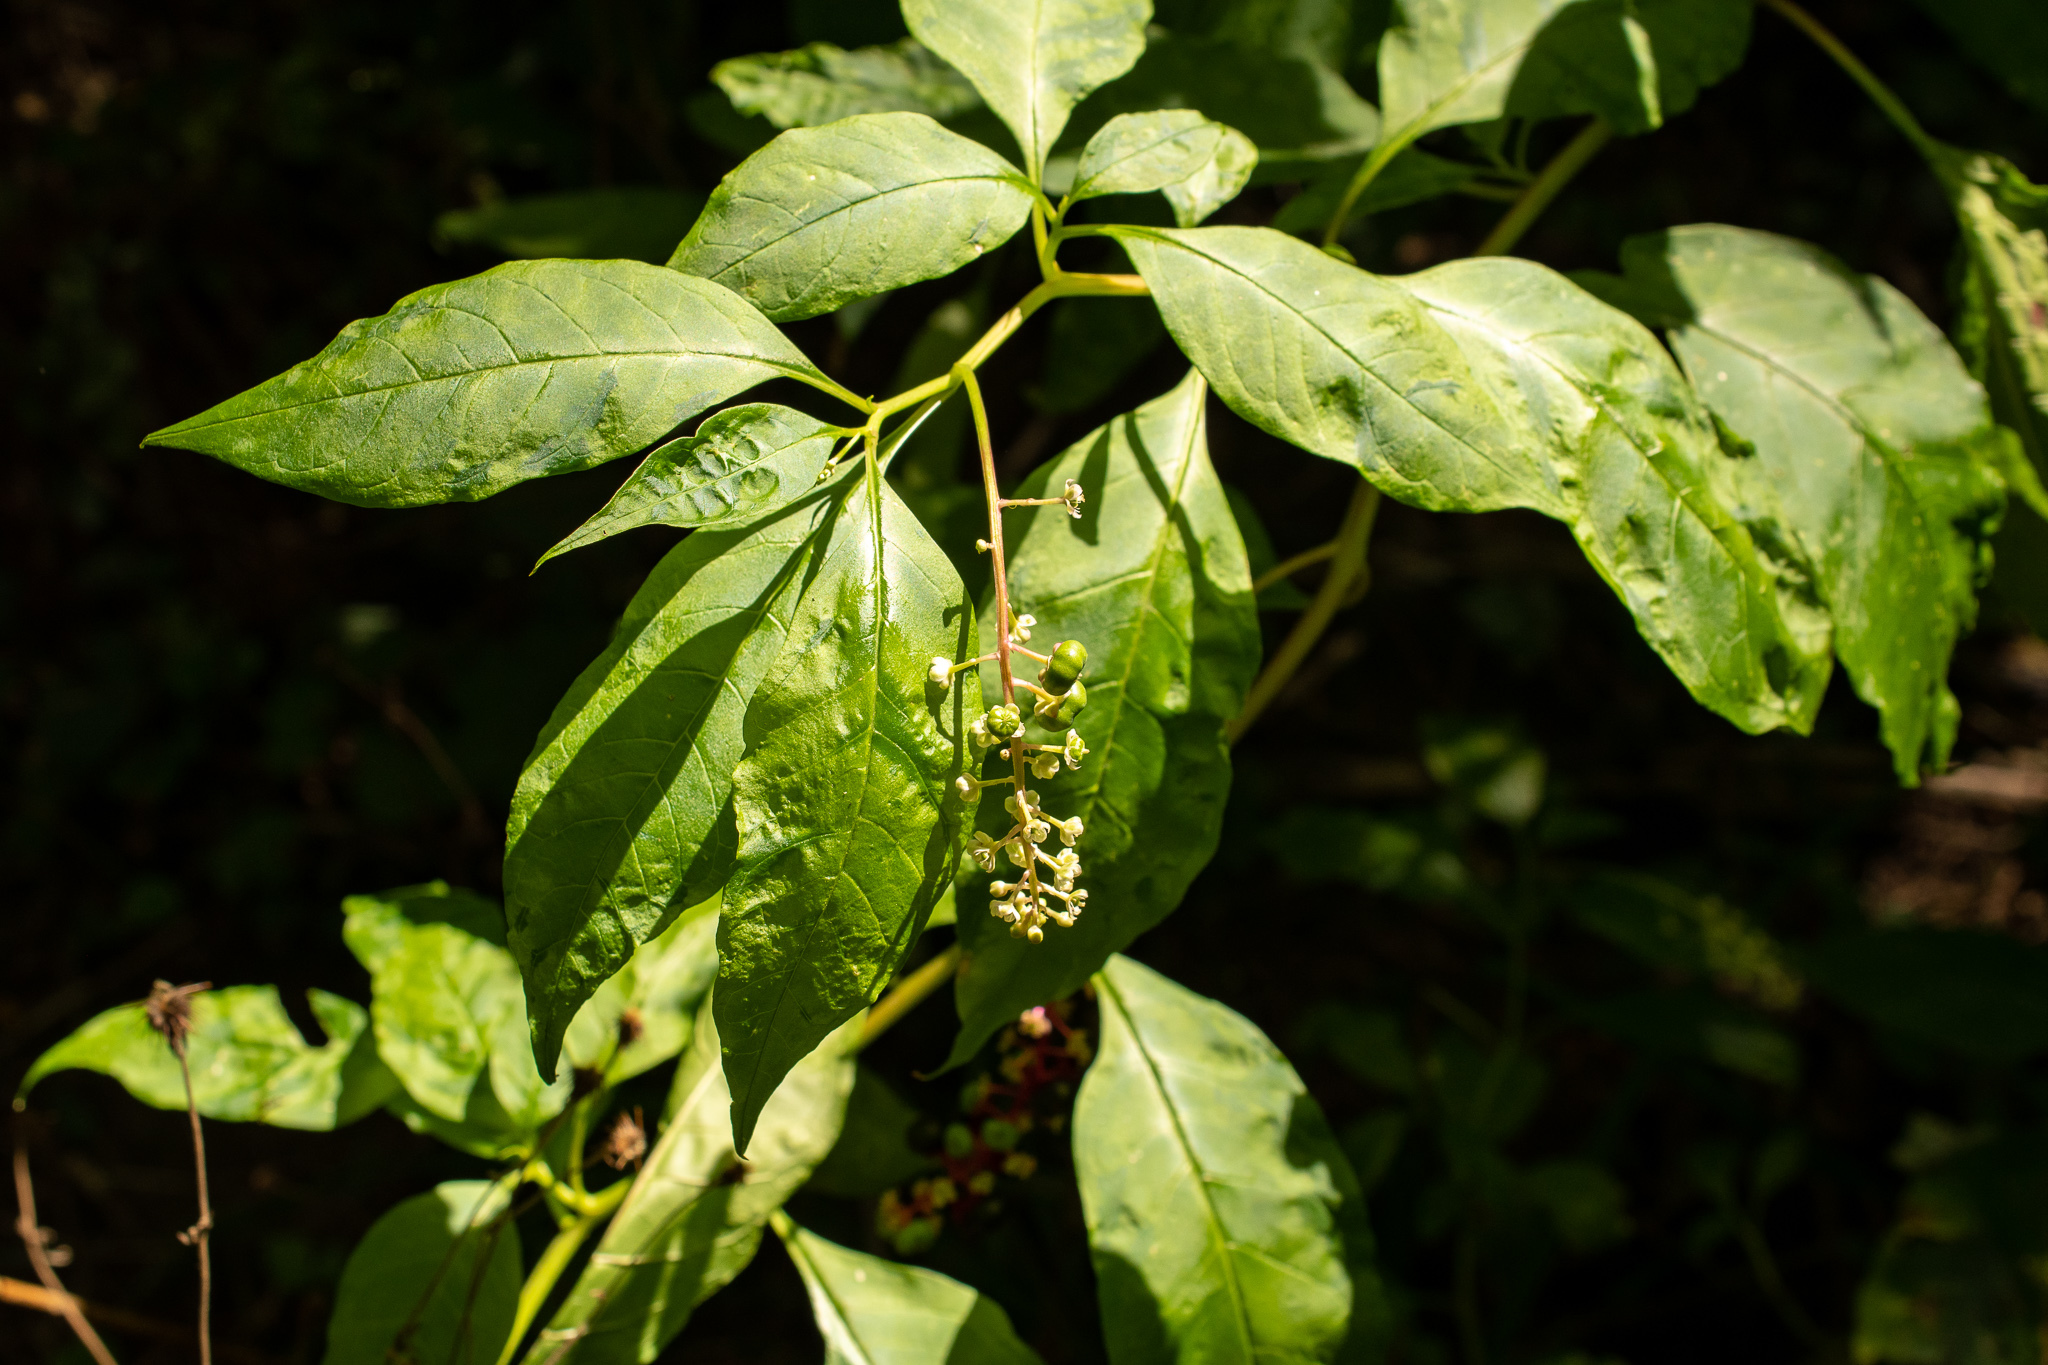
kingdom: Plantae
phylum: Tracheophyta
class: Magnoliopsida
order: Caryophyllales
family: Phytolaccaceae
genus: Phytolacca
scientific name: Phytolacca americana
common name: American pokeweed
